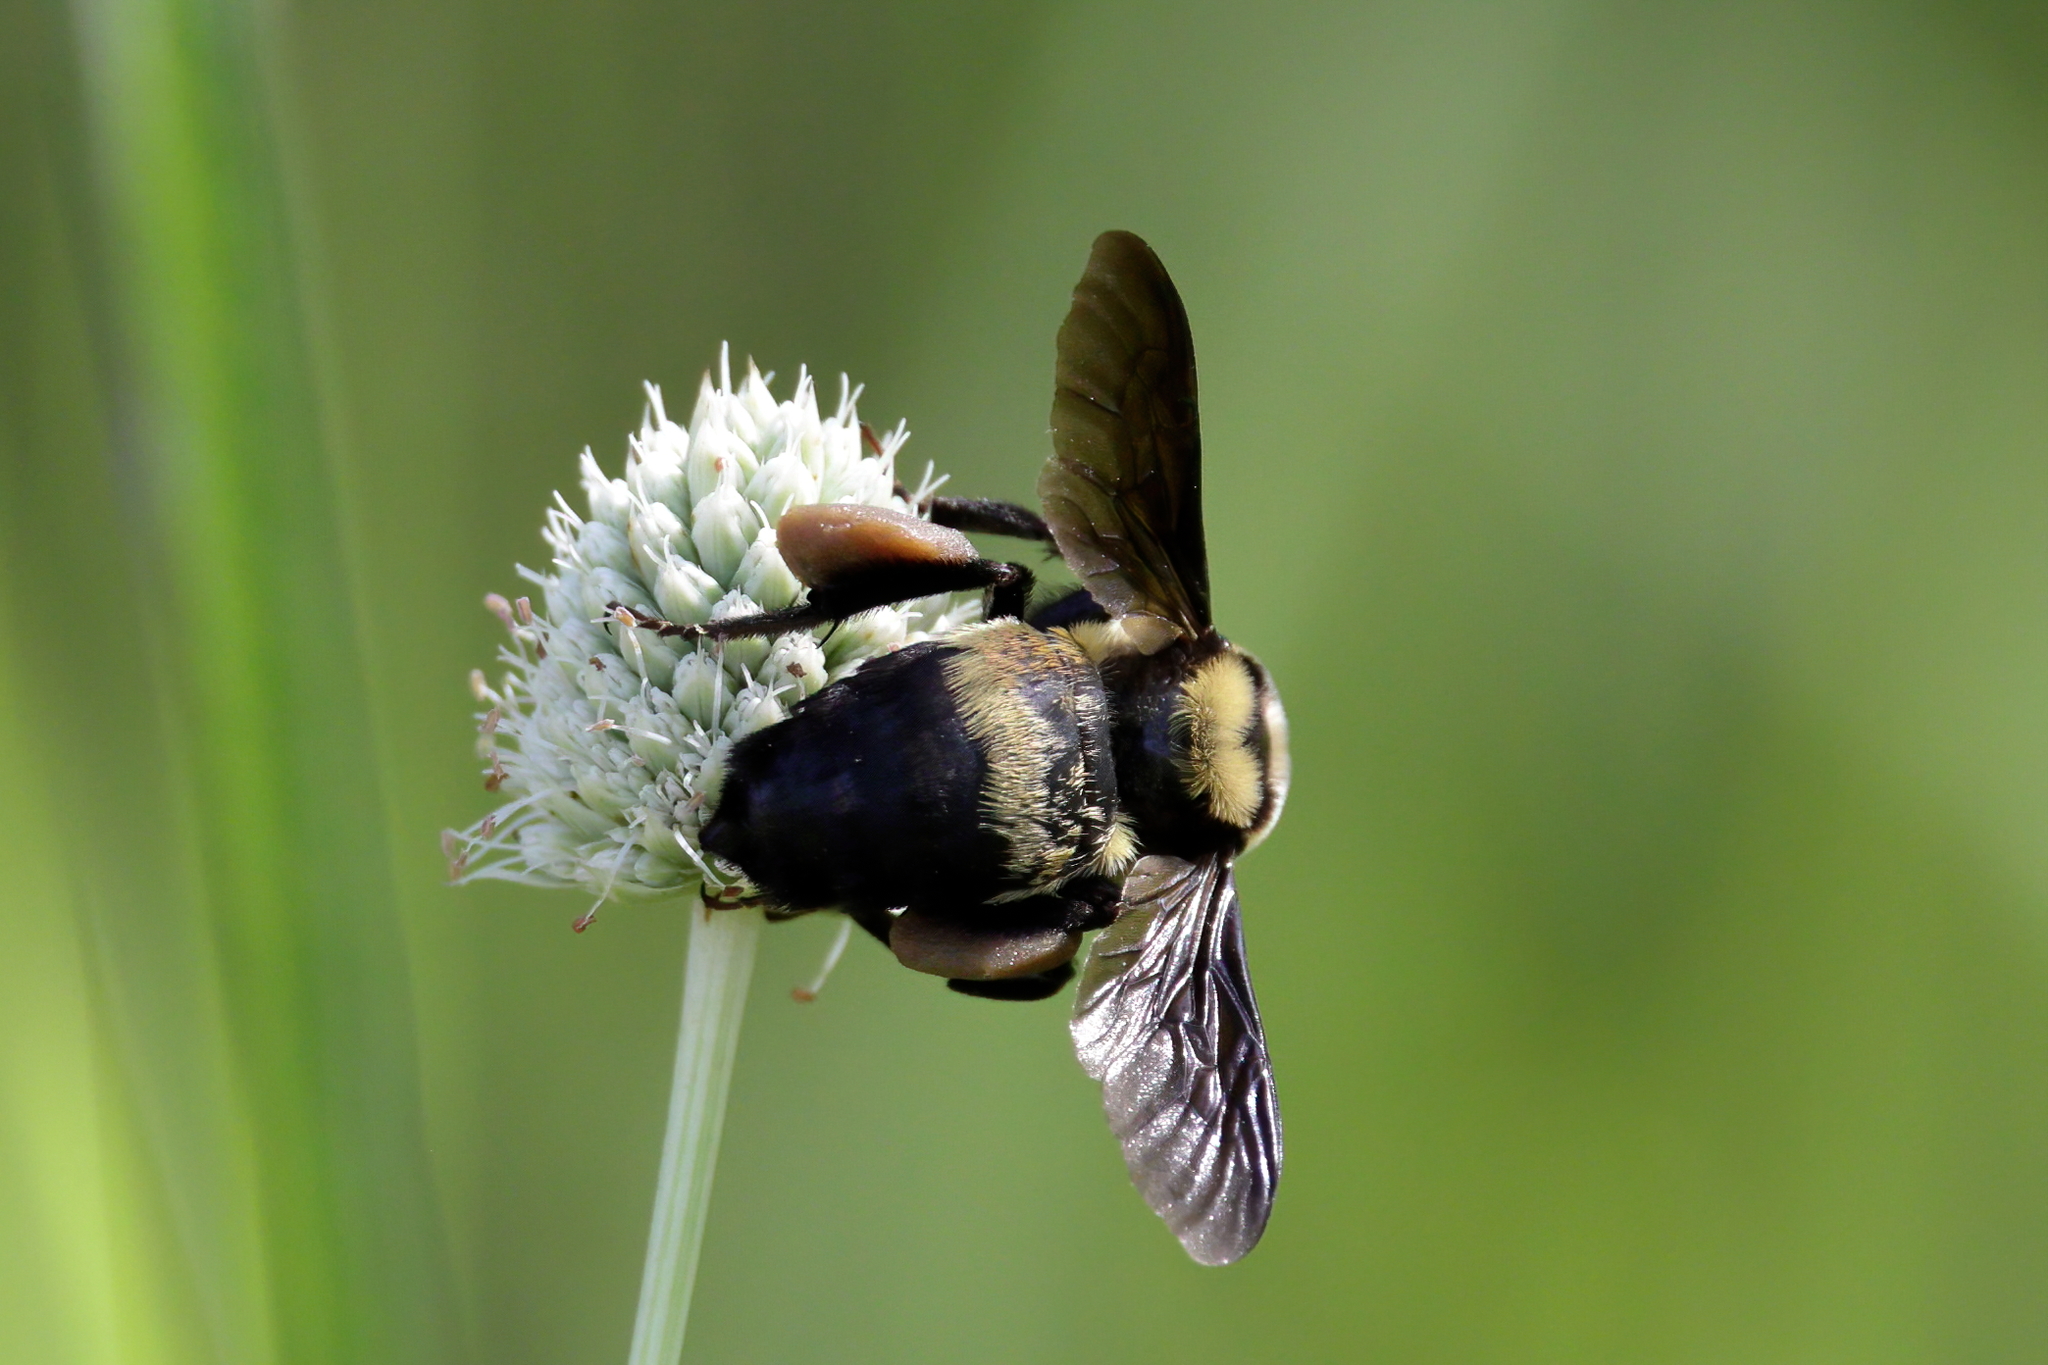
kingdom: Animalia
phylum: Arthropoda
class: Insecta
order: Hymenoptera
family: Apidae
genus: Bombus
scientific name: Bombus fraternus
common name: Southern plains bumble bee
